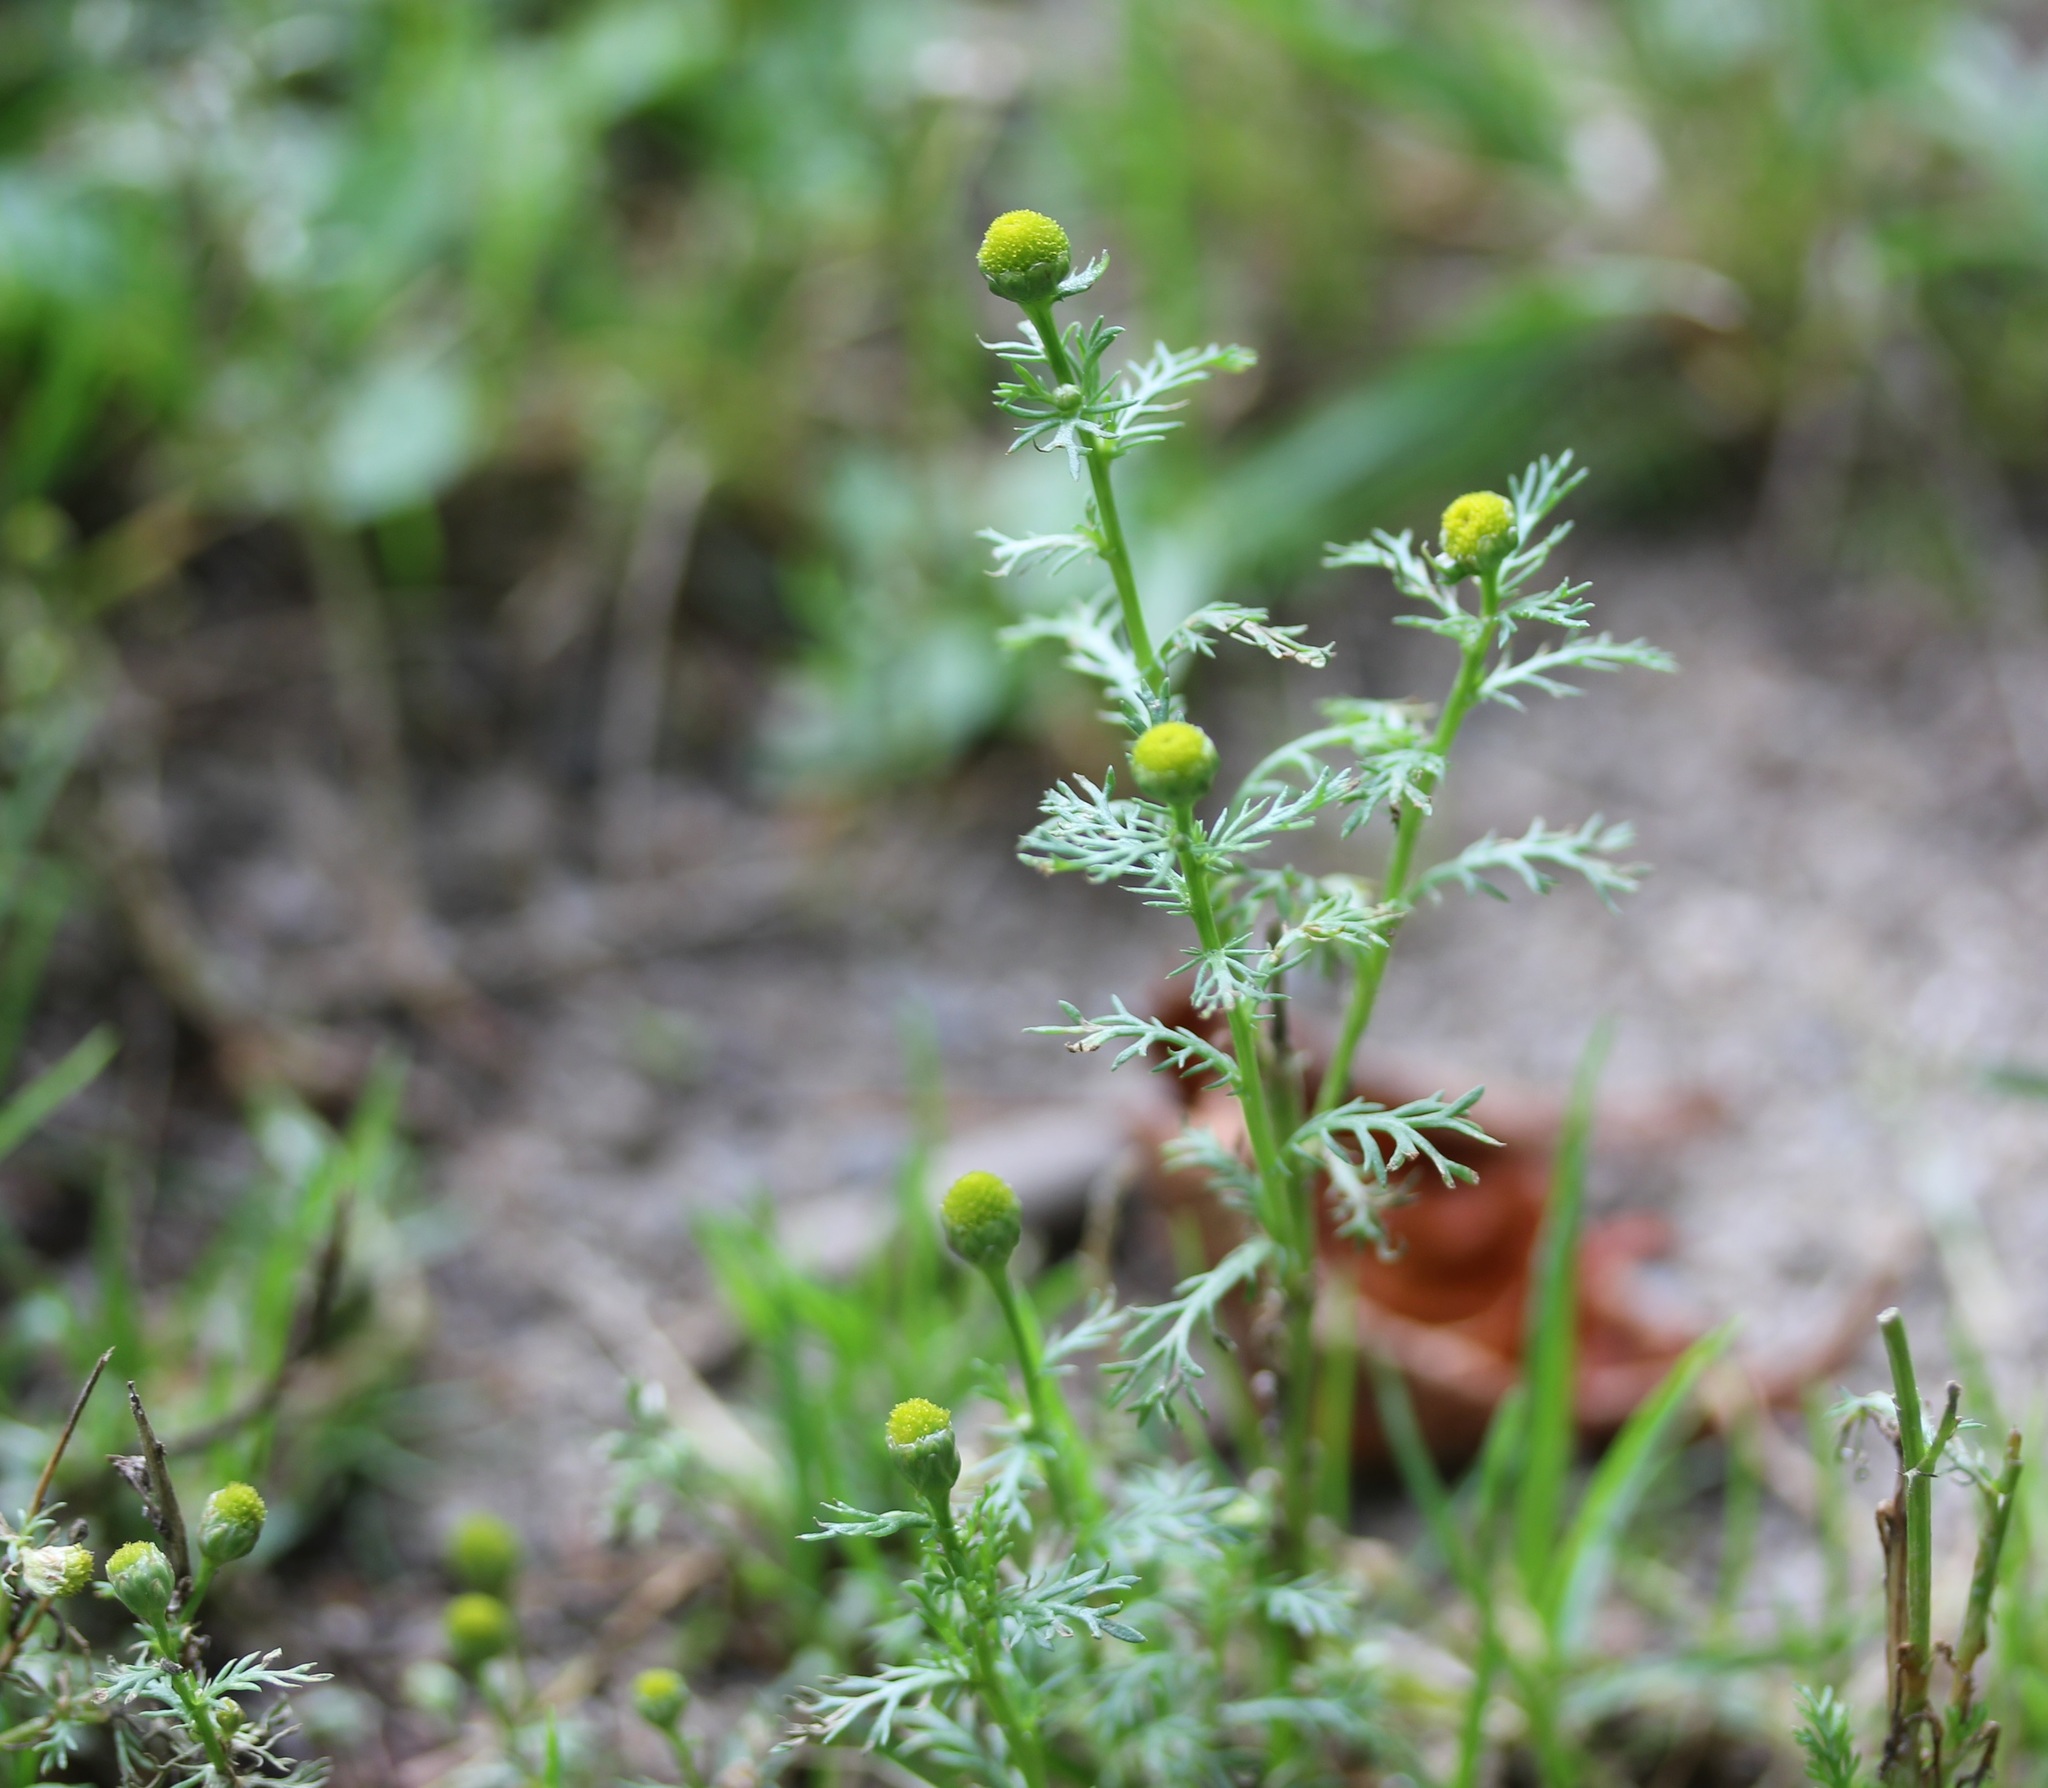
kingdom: Plantae
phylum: Tracheophyta
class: Magnoliopsida
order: Asterales
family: Asteraceae
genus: Matricaria
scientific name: Matricaria discoidea
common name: Disc mayweed
